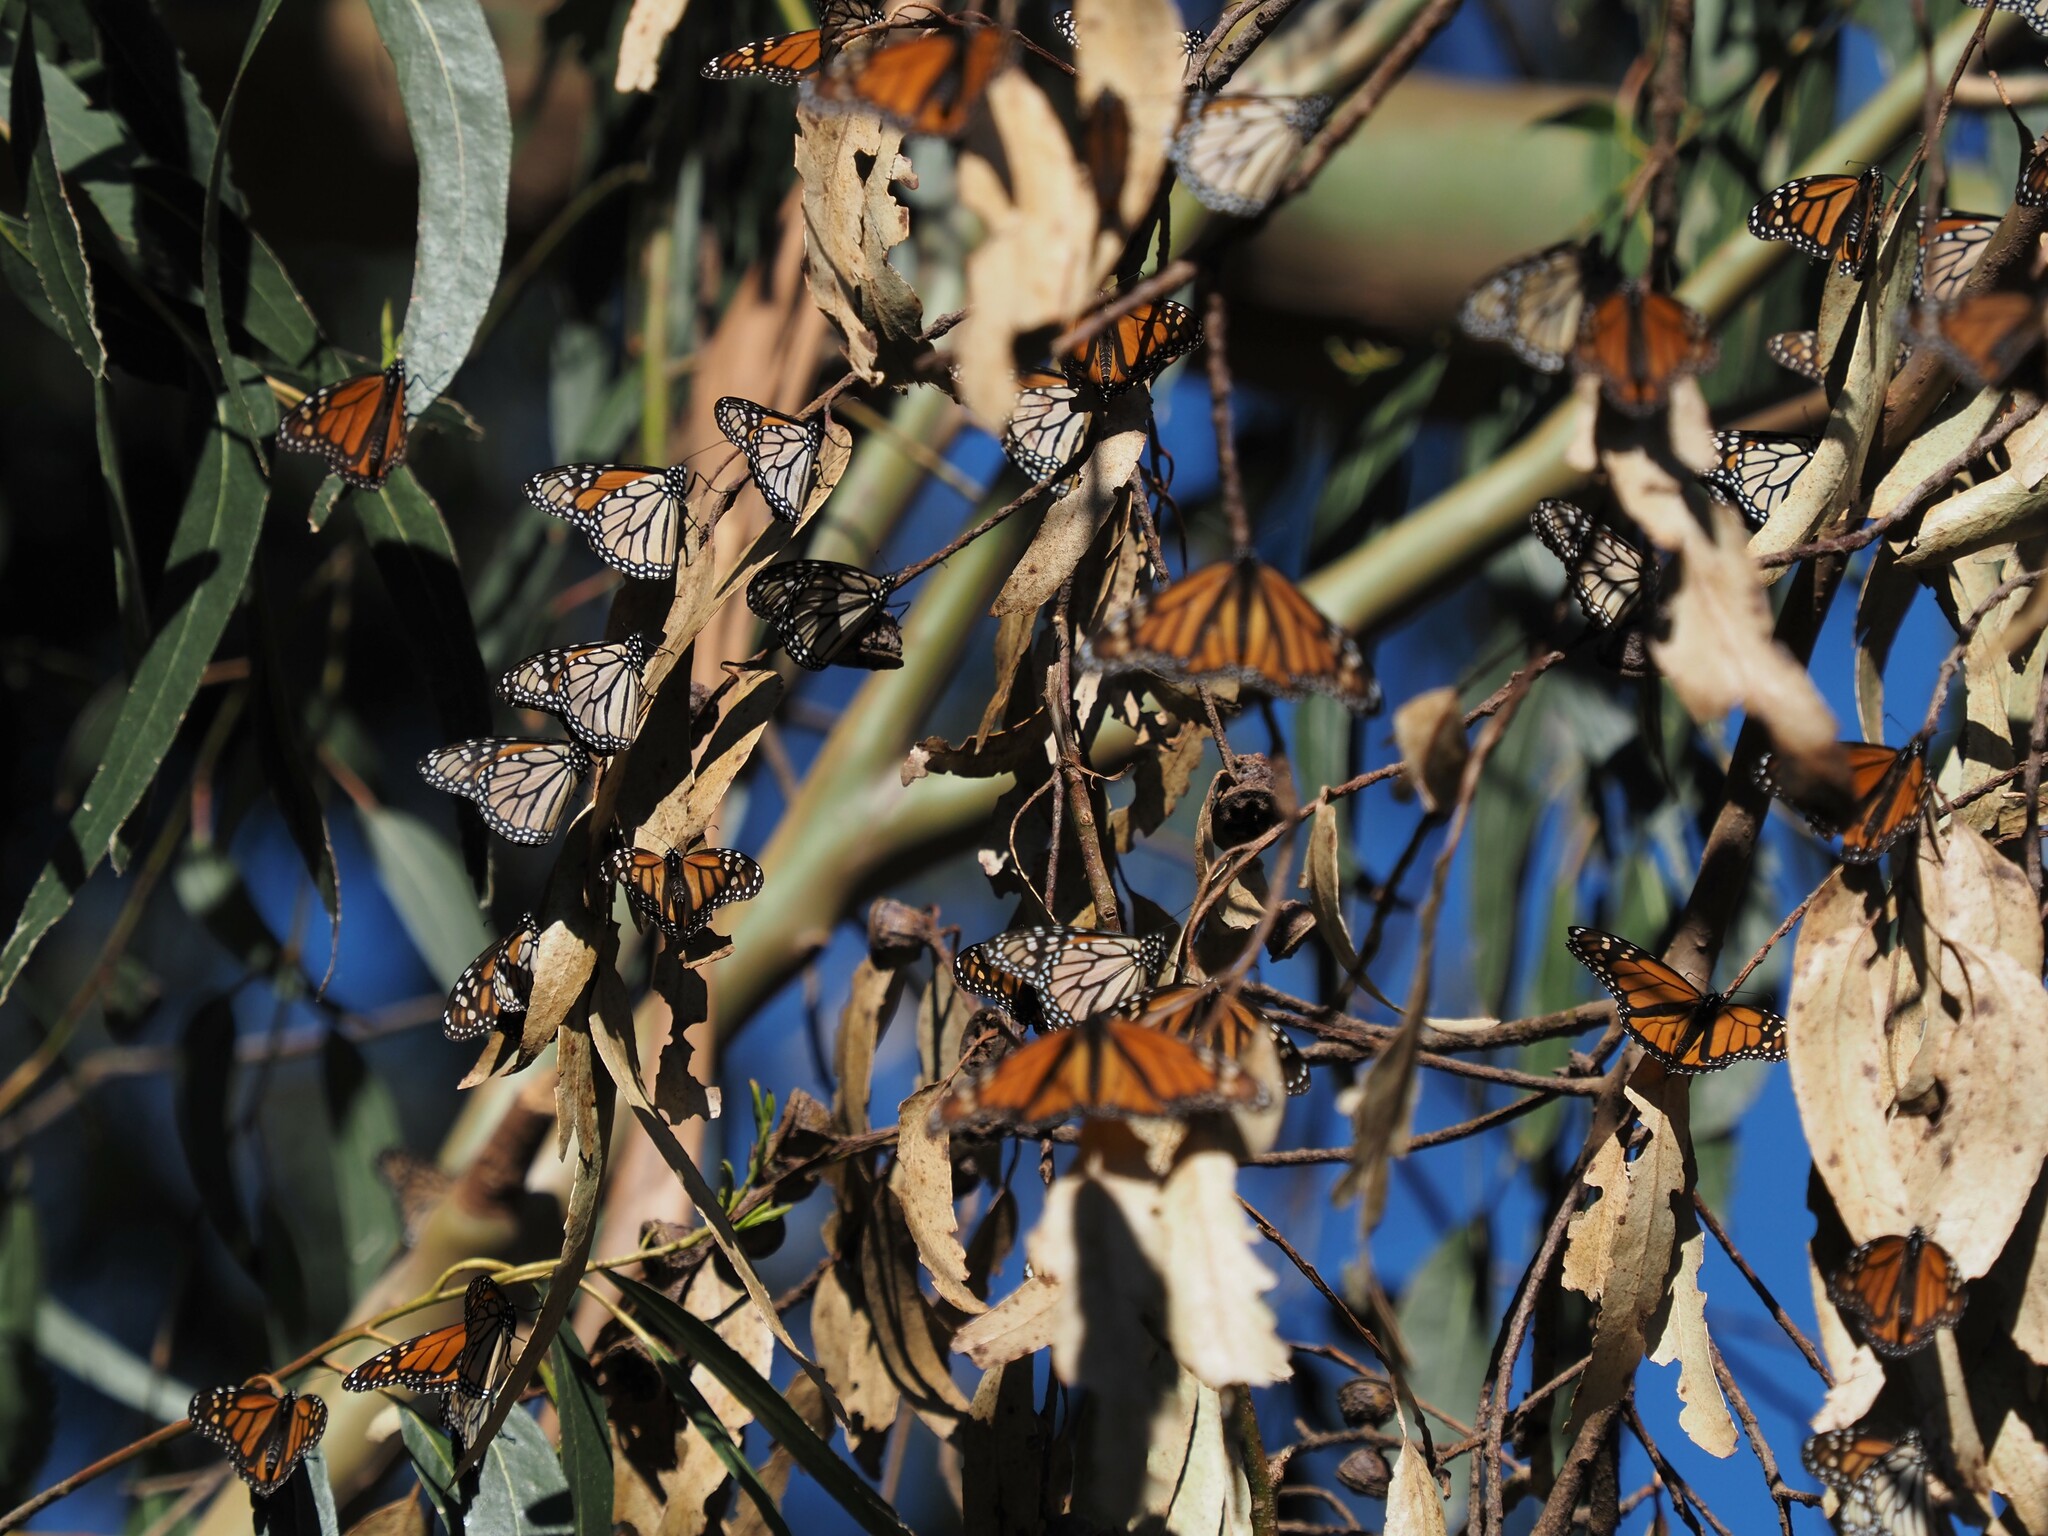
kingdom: Animalia
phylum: Arthropoda
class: Insecta
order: Lepidoptera
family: Nymphalidae
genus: Danaus
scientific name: Danaus plexippus
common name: Monarch
